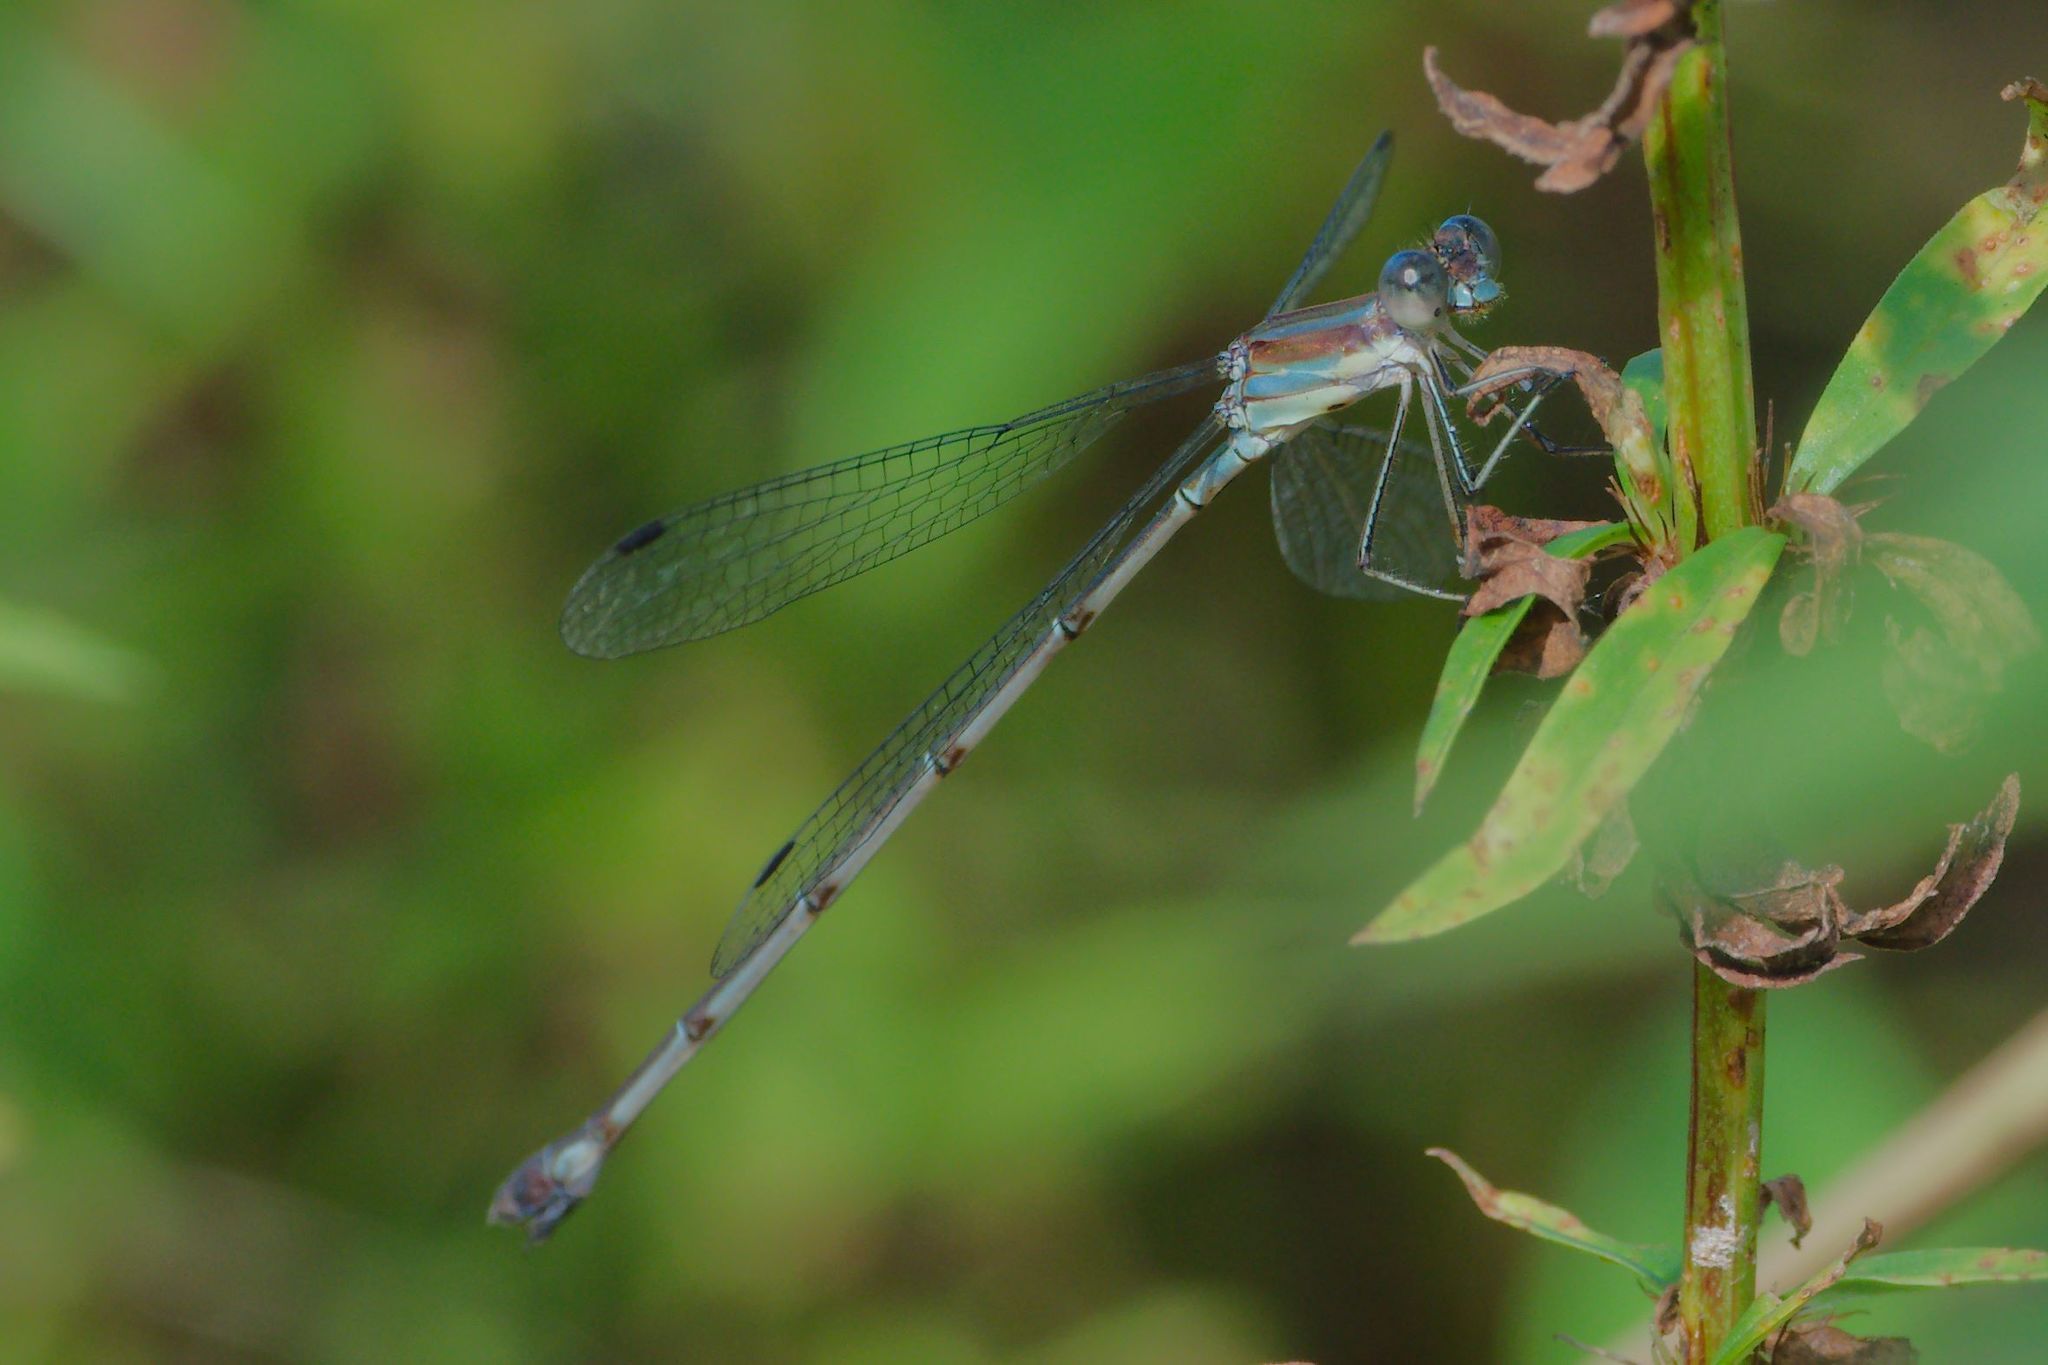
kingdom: Animalia
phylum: Arthropoda
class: Insecta
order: Odonata
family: Lestidae
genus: Lestes
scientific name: Lestes tenuatus
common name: Blue-striped spreadwing
